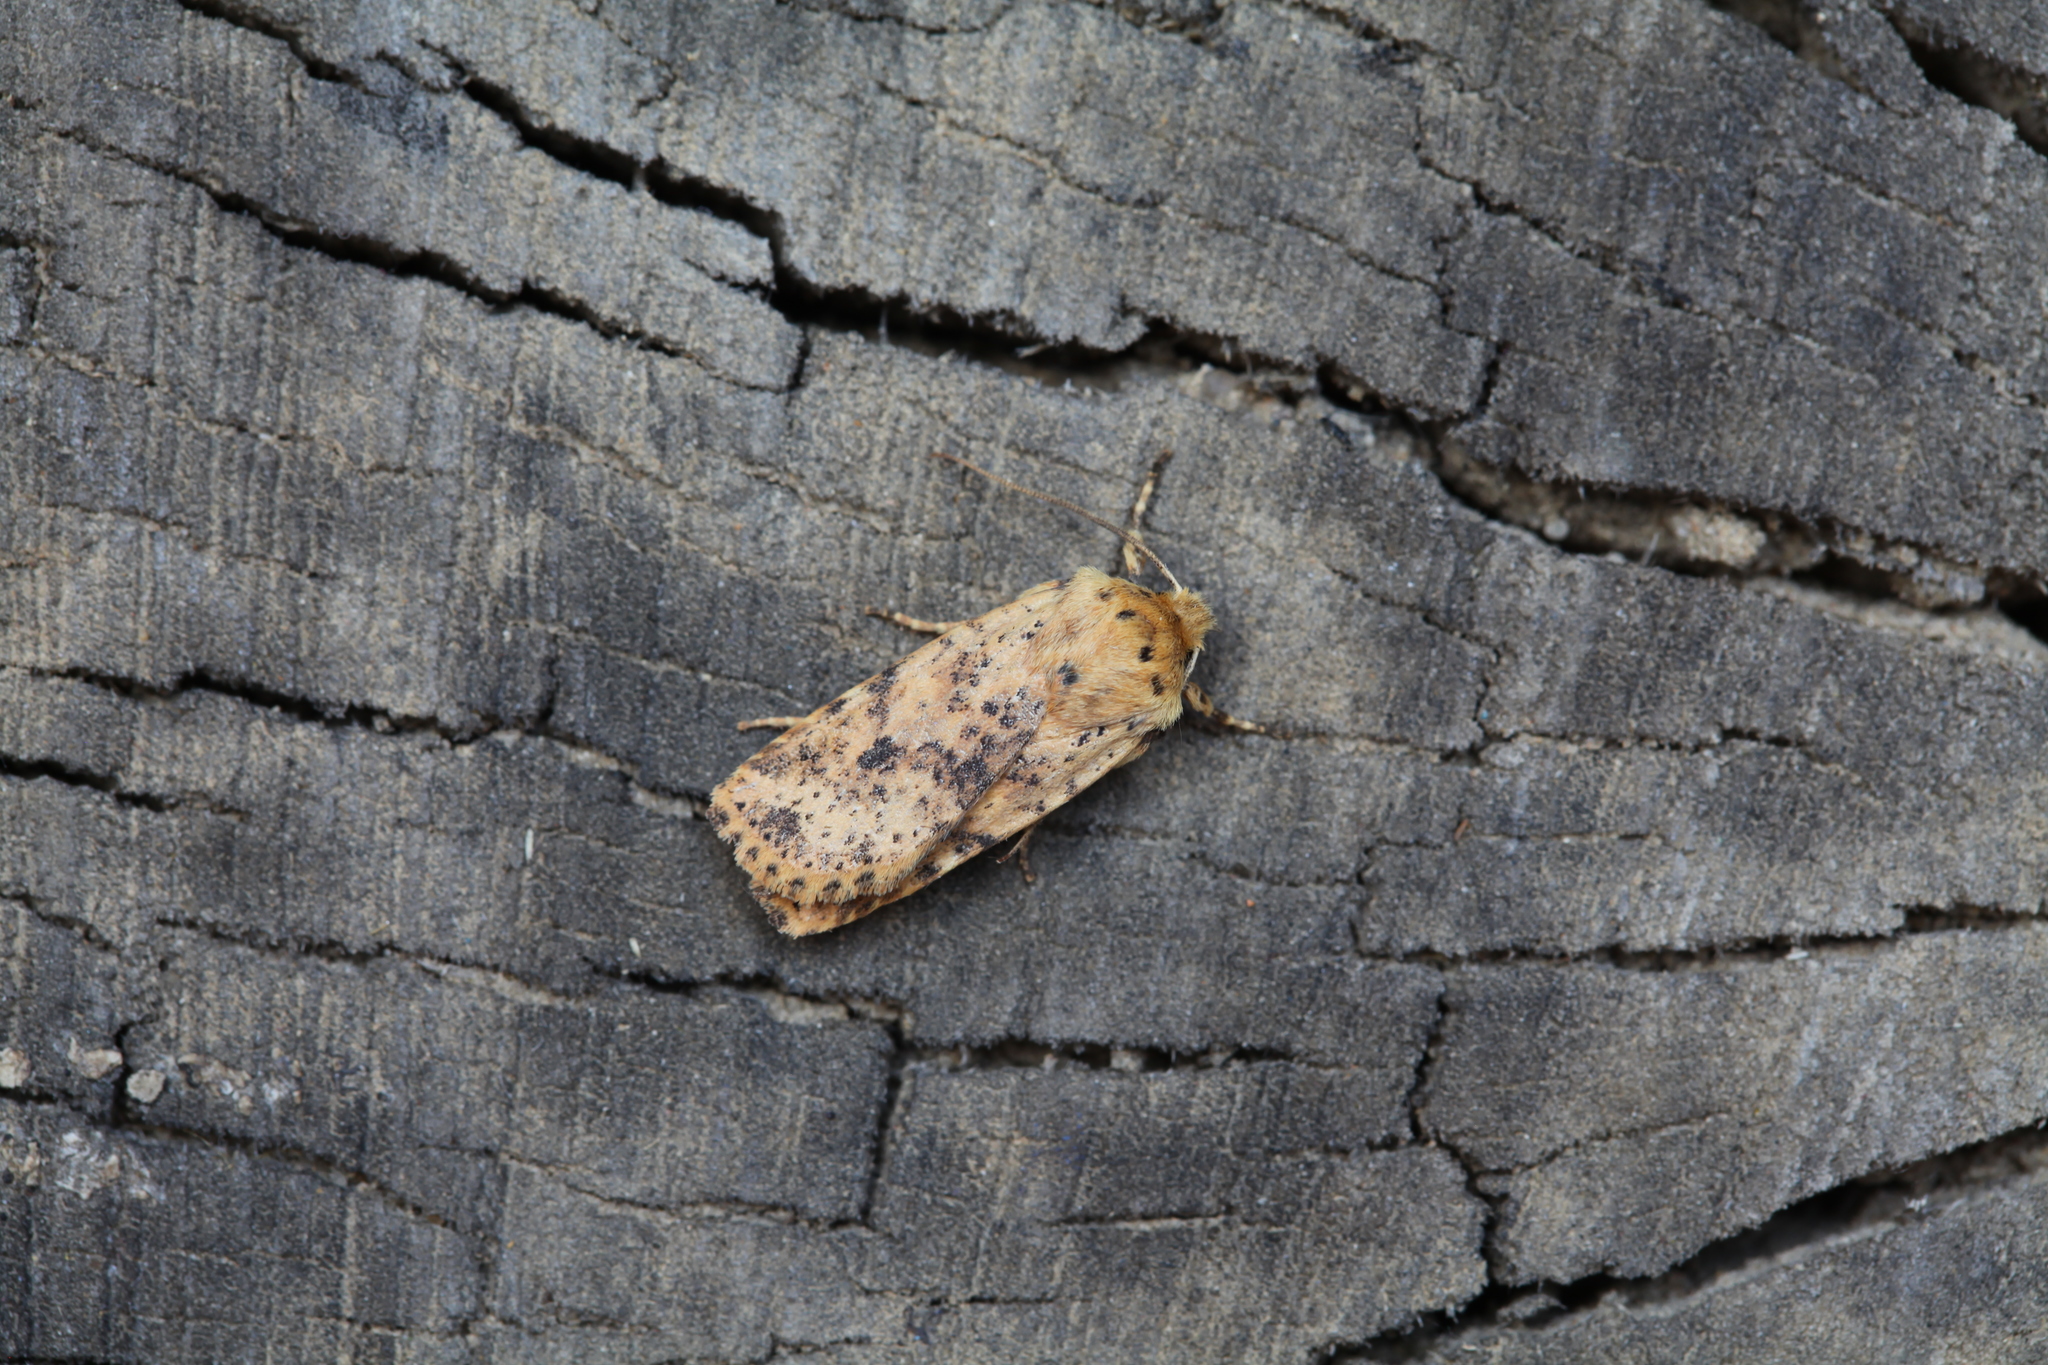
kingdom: Animalia
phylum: Arthropoda
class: Insecta
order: Lepidoptera
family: Noctuidae
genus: Conistra
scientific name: Conistra rubiginea
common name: Dotted chestnut
